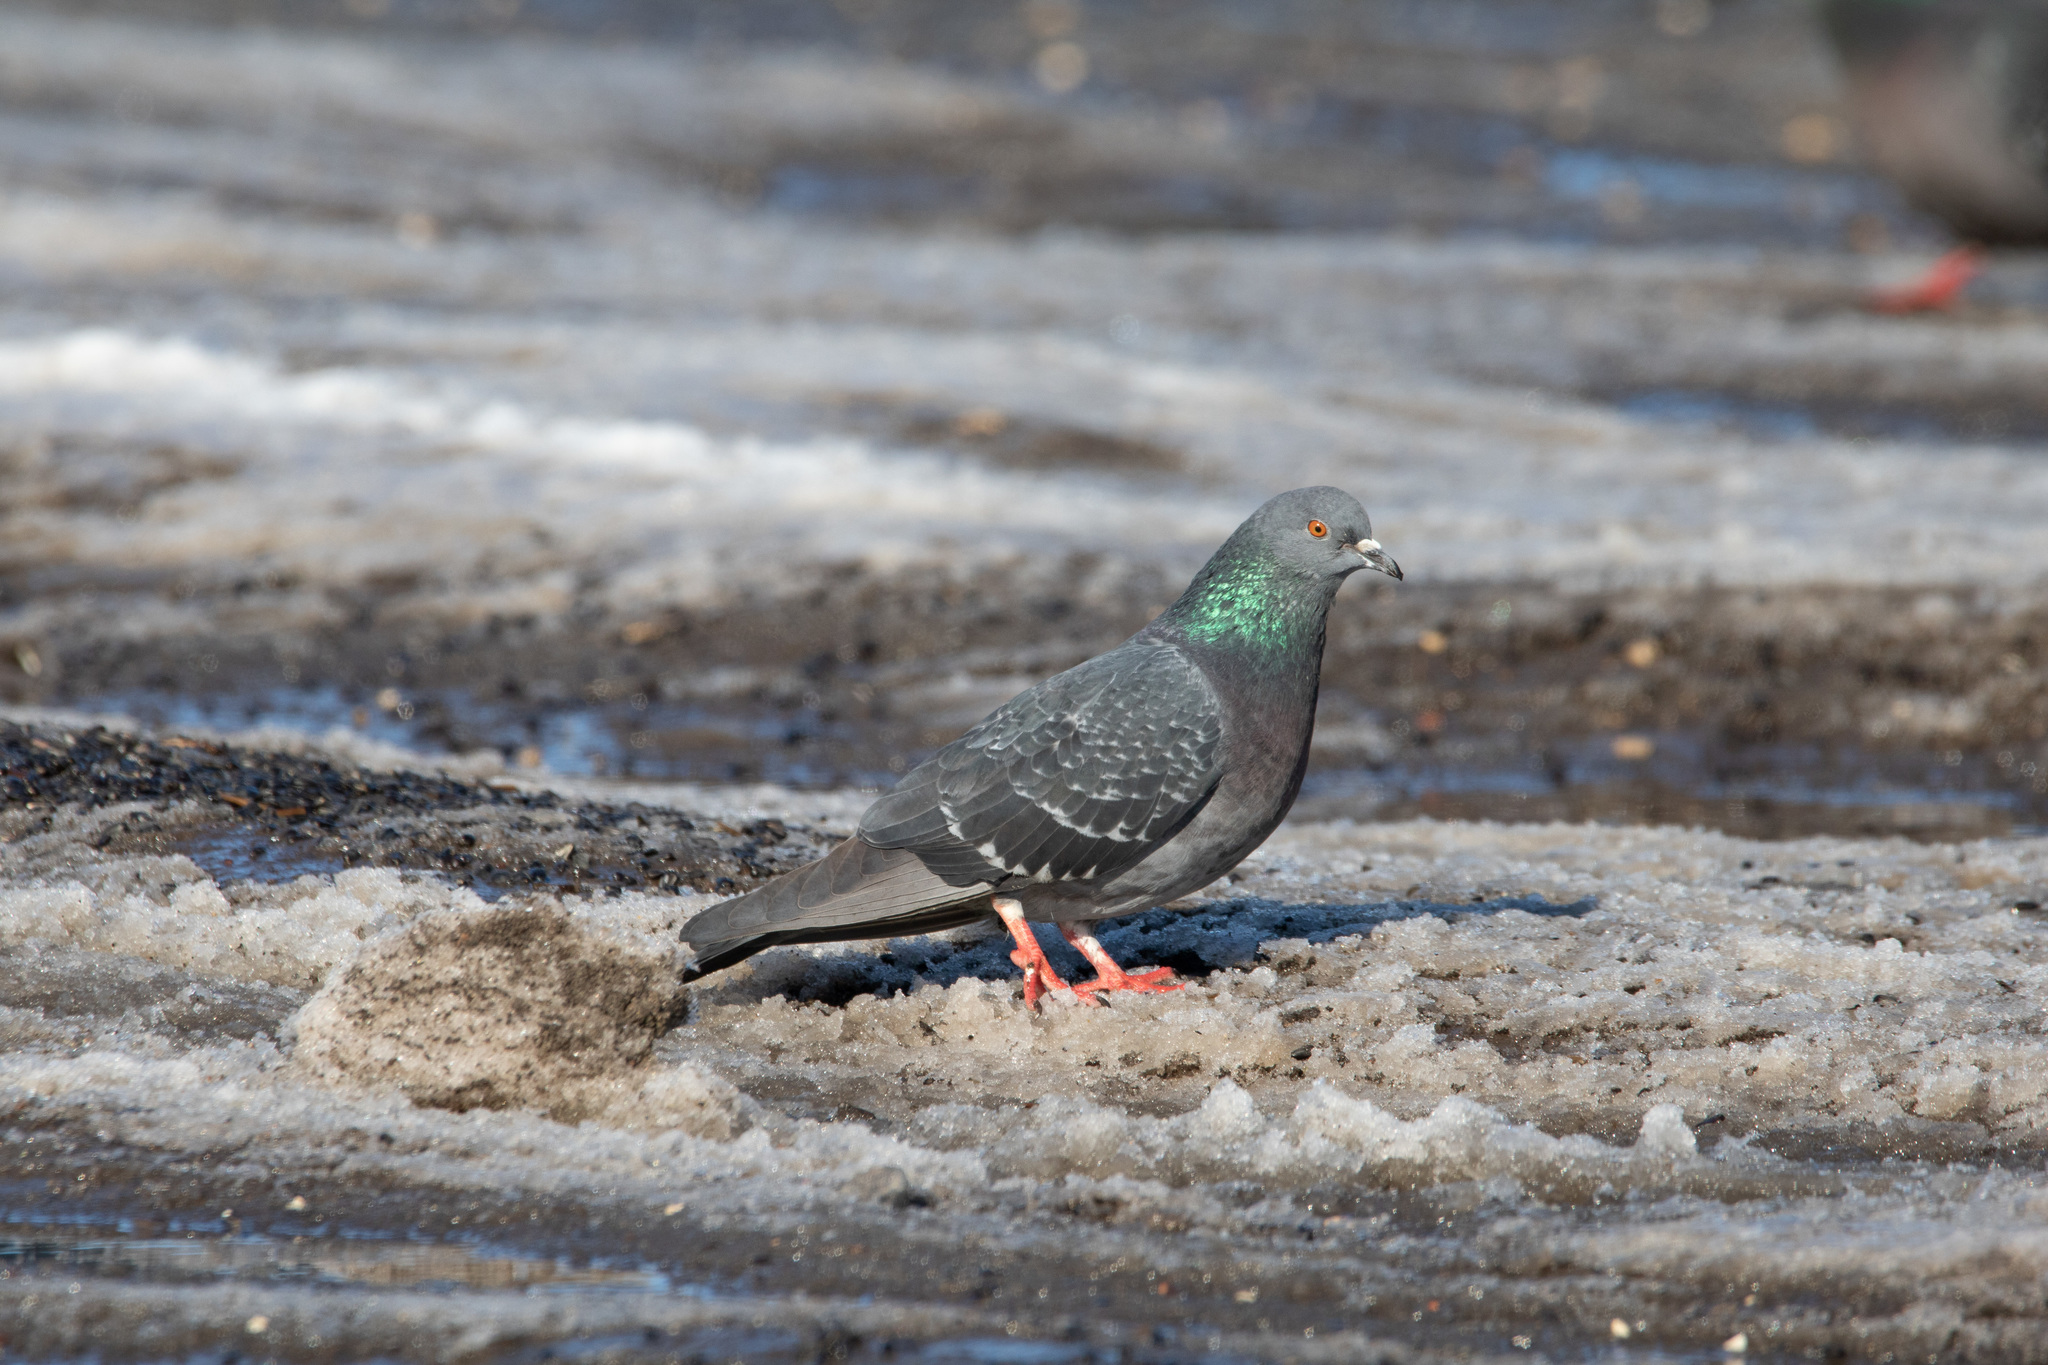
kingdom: Animalia
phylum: Chordata
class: Aves
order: Columbiformes
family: Columbidae
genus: Columba
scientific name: Columba livia
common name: Rock pigeon
